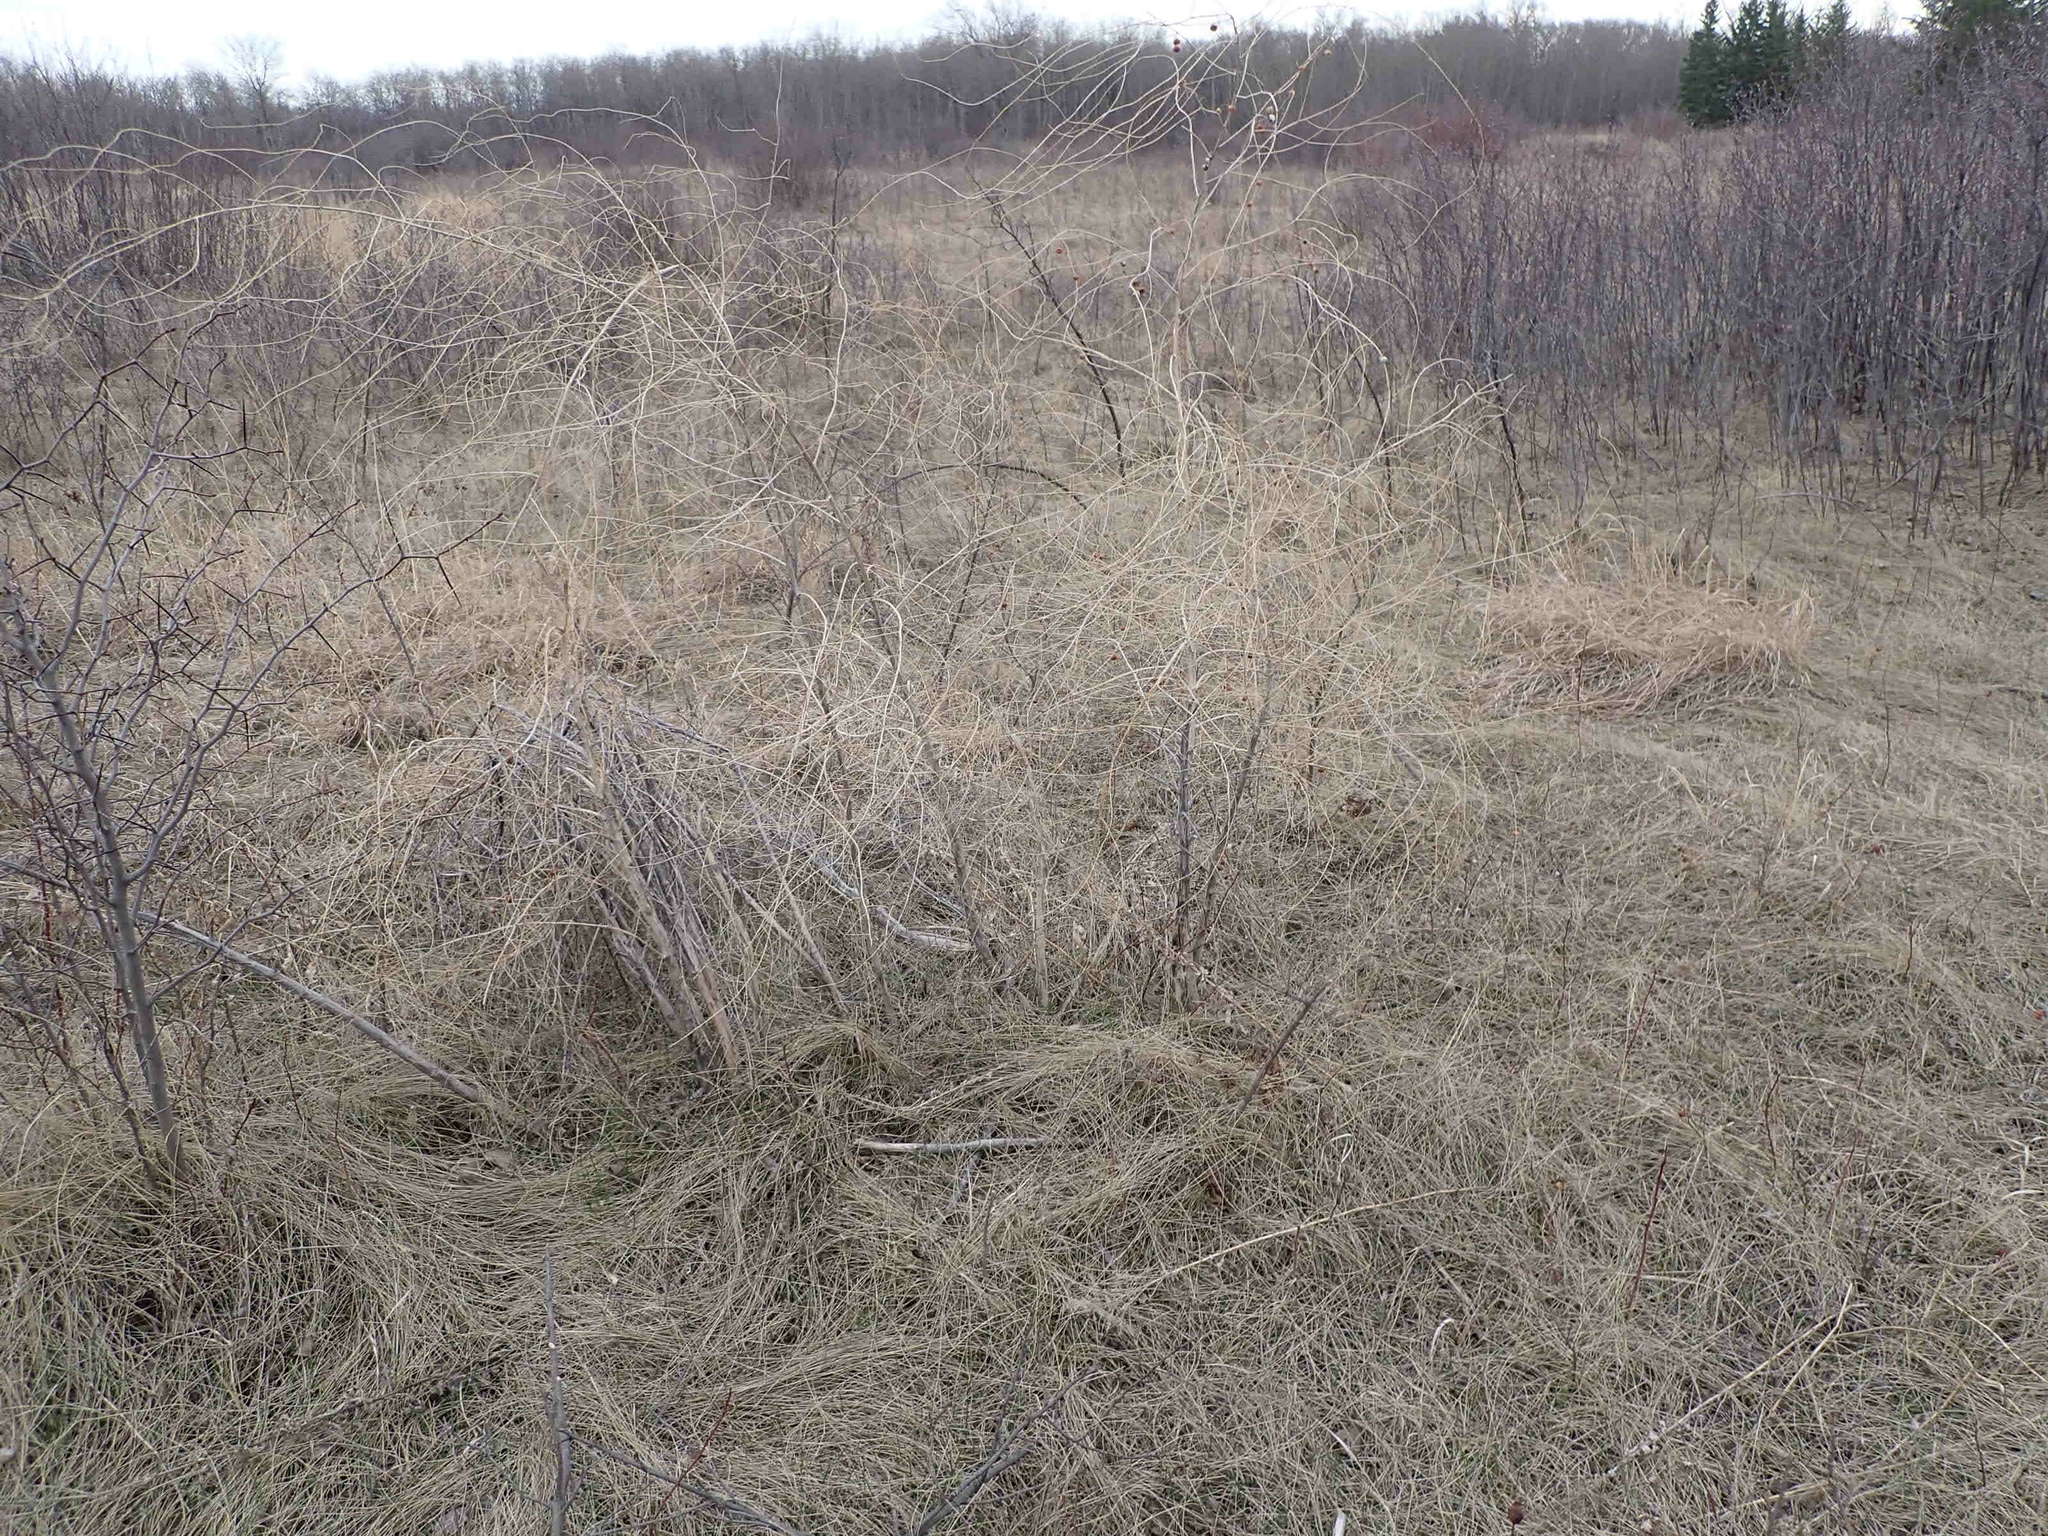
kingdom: Plantae
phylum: Tracheophyta
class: Liliopsida
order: Asparagales
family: Asparagaceae
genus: Asparagus
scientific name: Asparagus officinalis
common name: Garden asparagus
